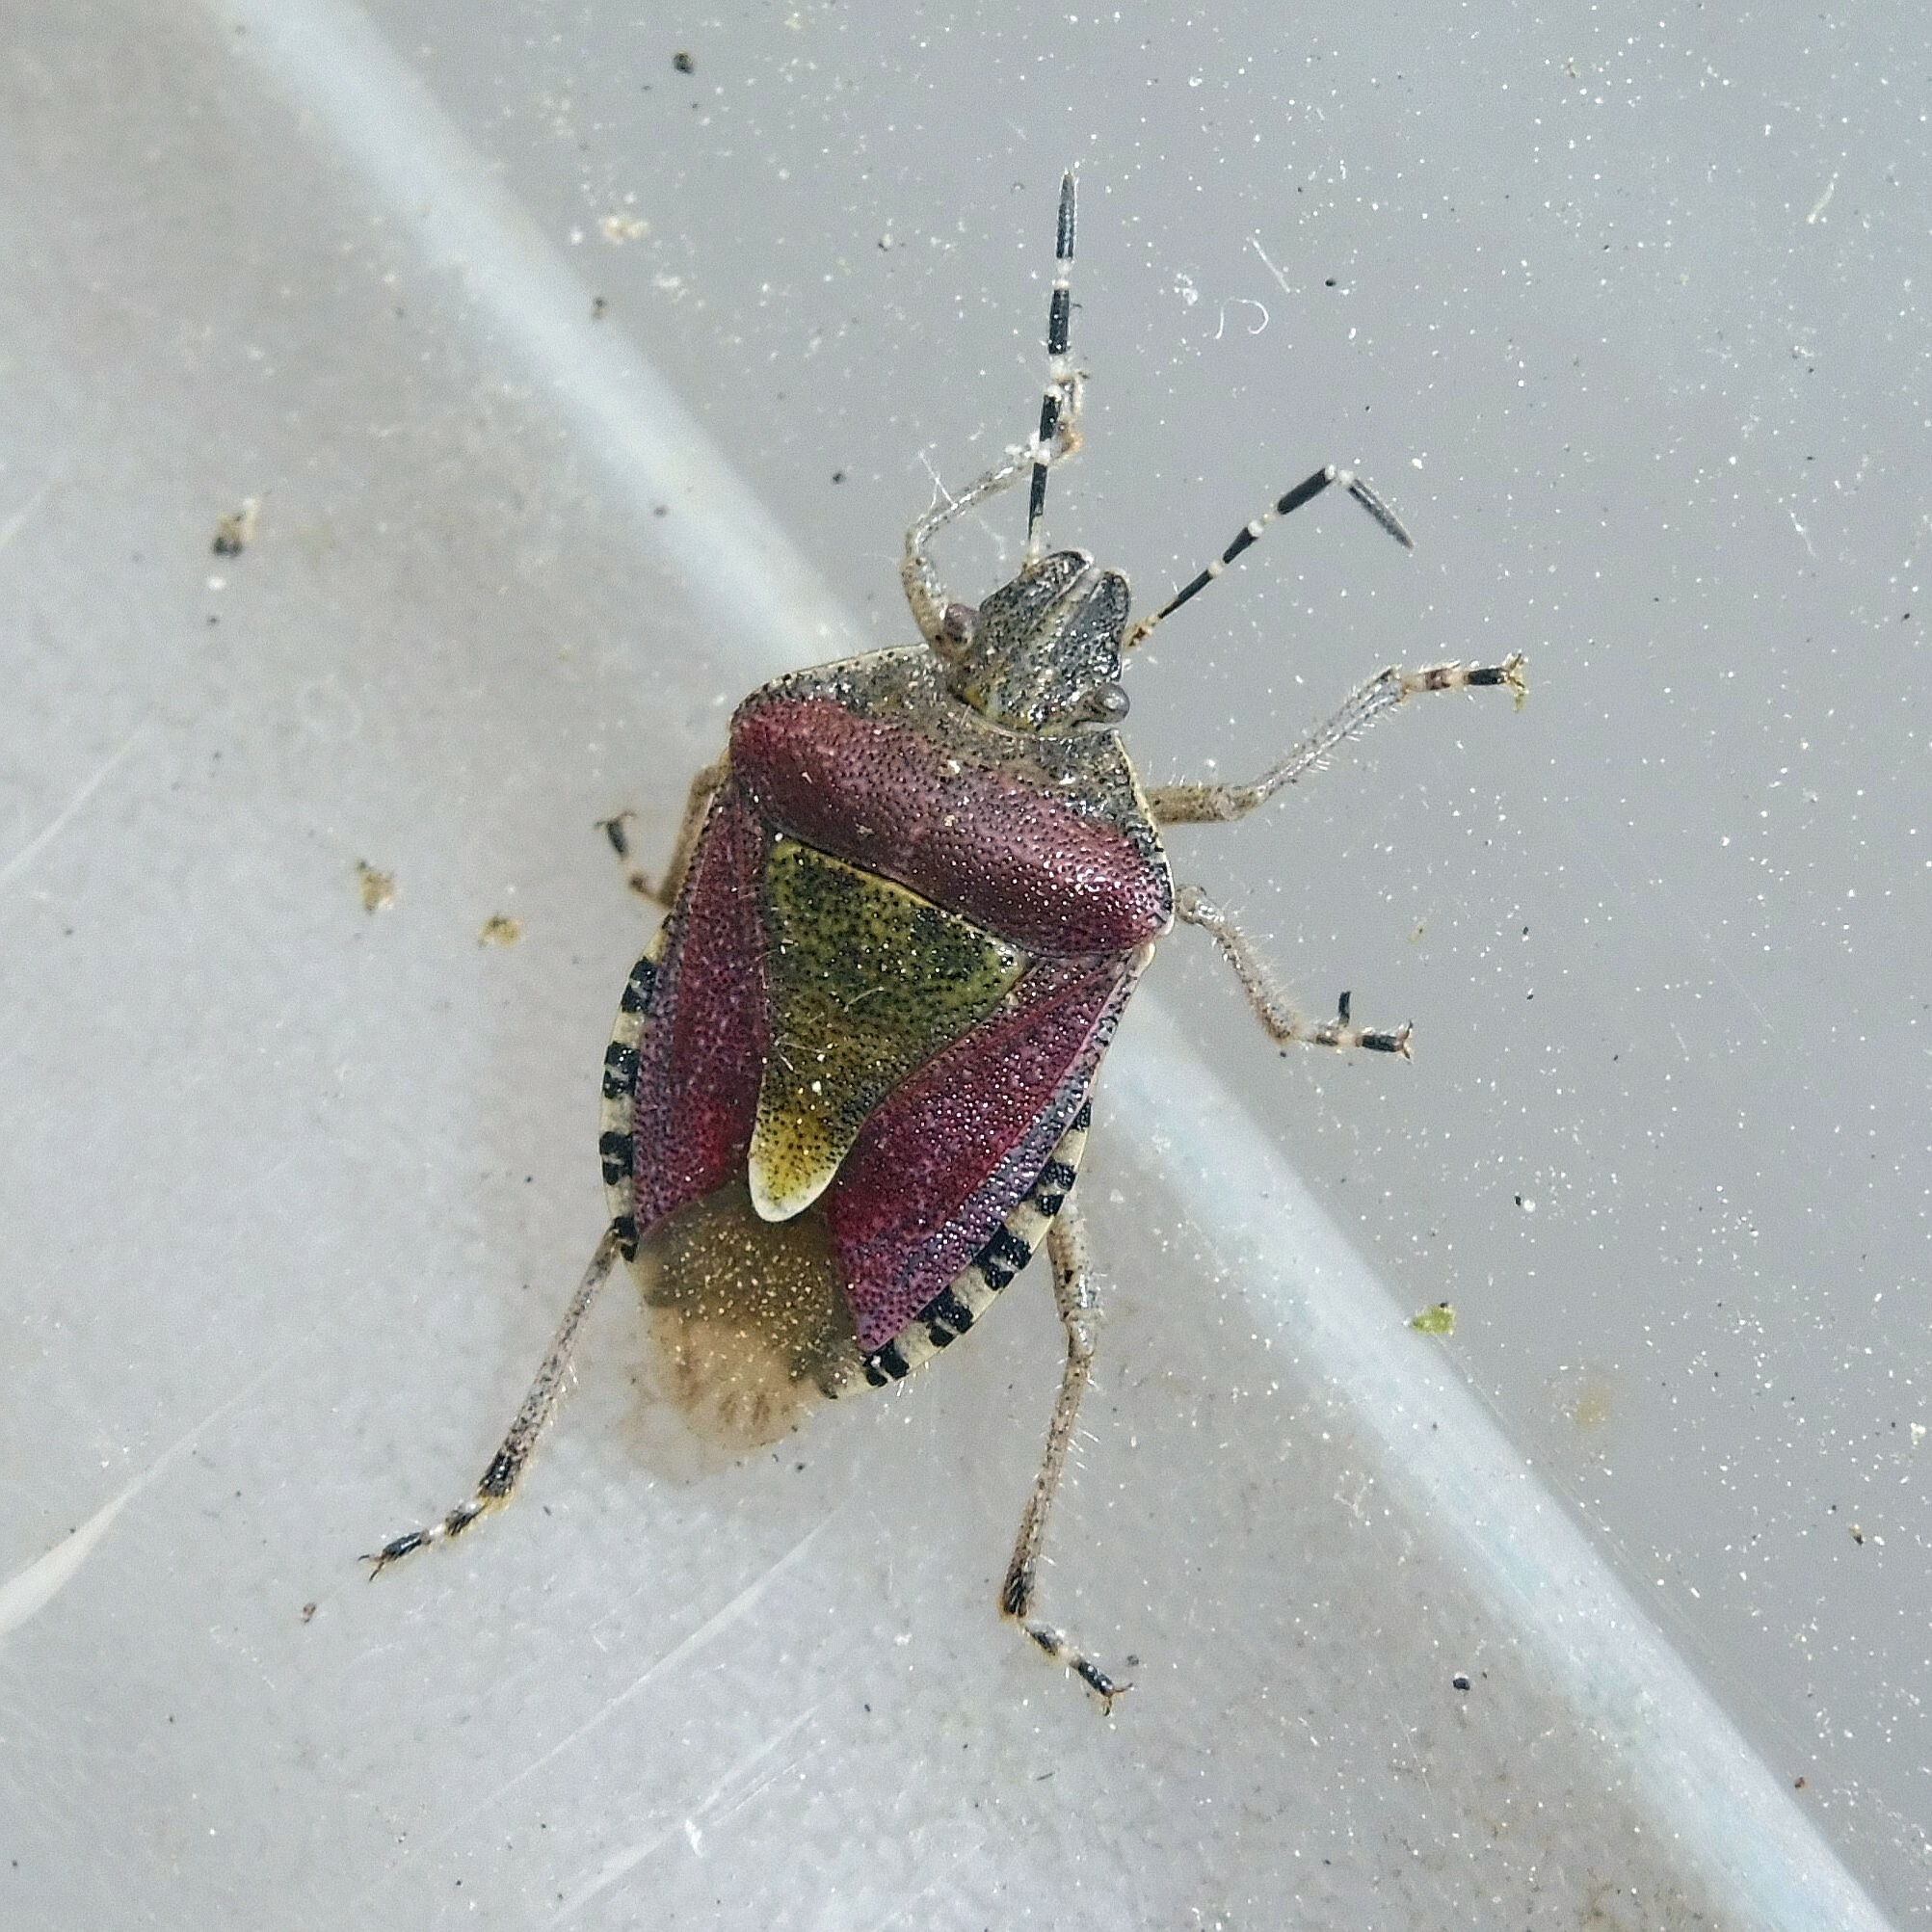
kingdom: Animalia
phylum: Arthropoda
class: Insecta
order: Hemiptera
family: Pentatomidae
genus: Dolycoris
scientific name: Dolycoris baccarum
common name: Sloe bug
